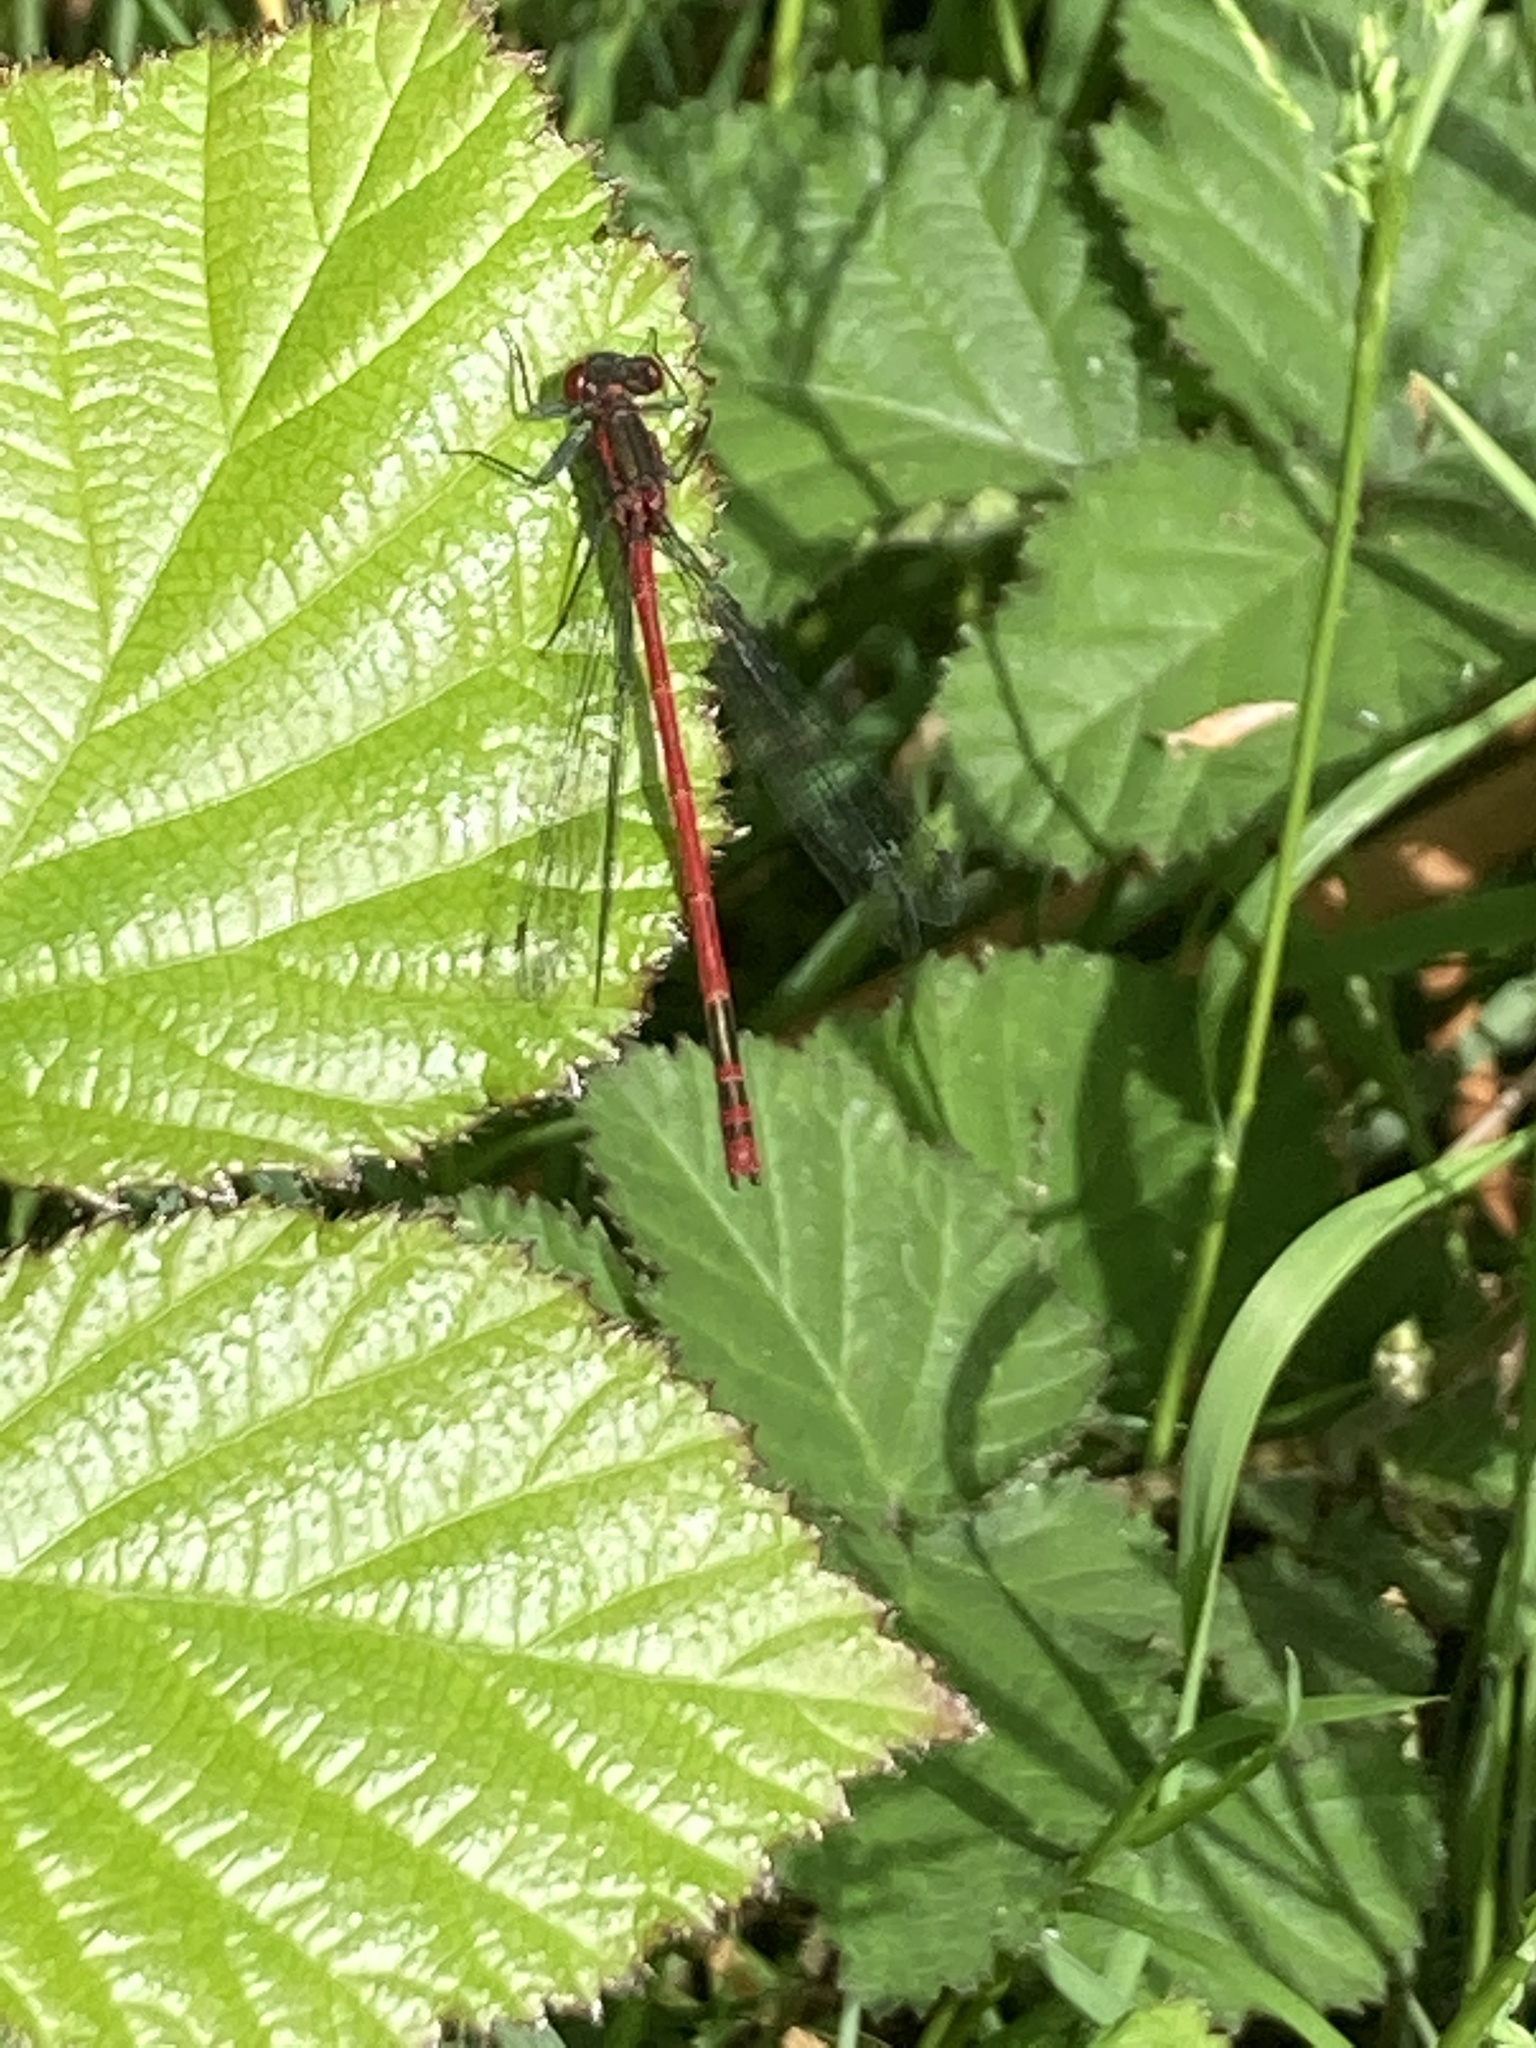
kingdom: Animalia
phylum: Arthropoda
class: Insecta
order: Odonata
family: Coenagrionidae
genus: Pyrrhosoma
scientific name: Pyrrhosoma nymphula
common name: Large red damsel
